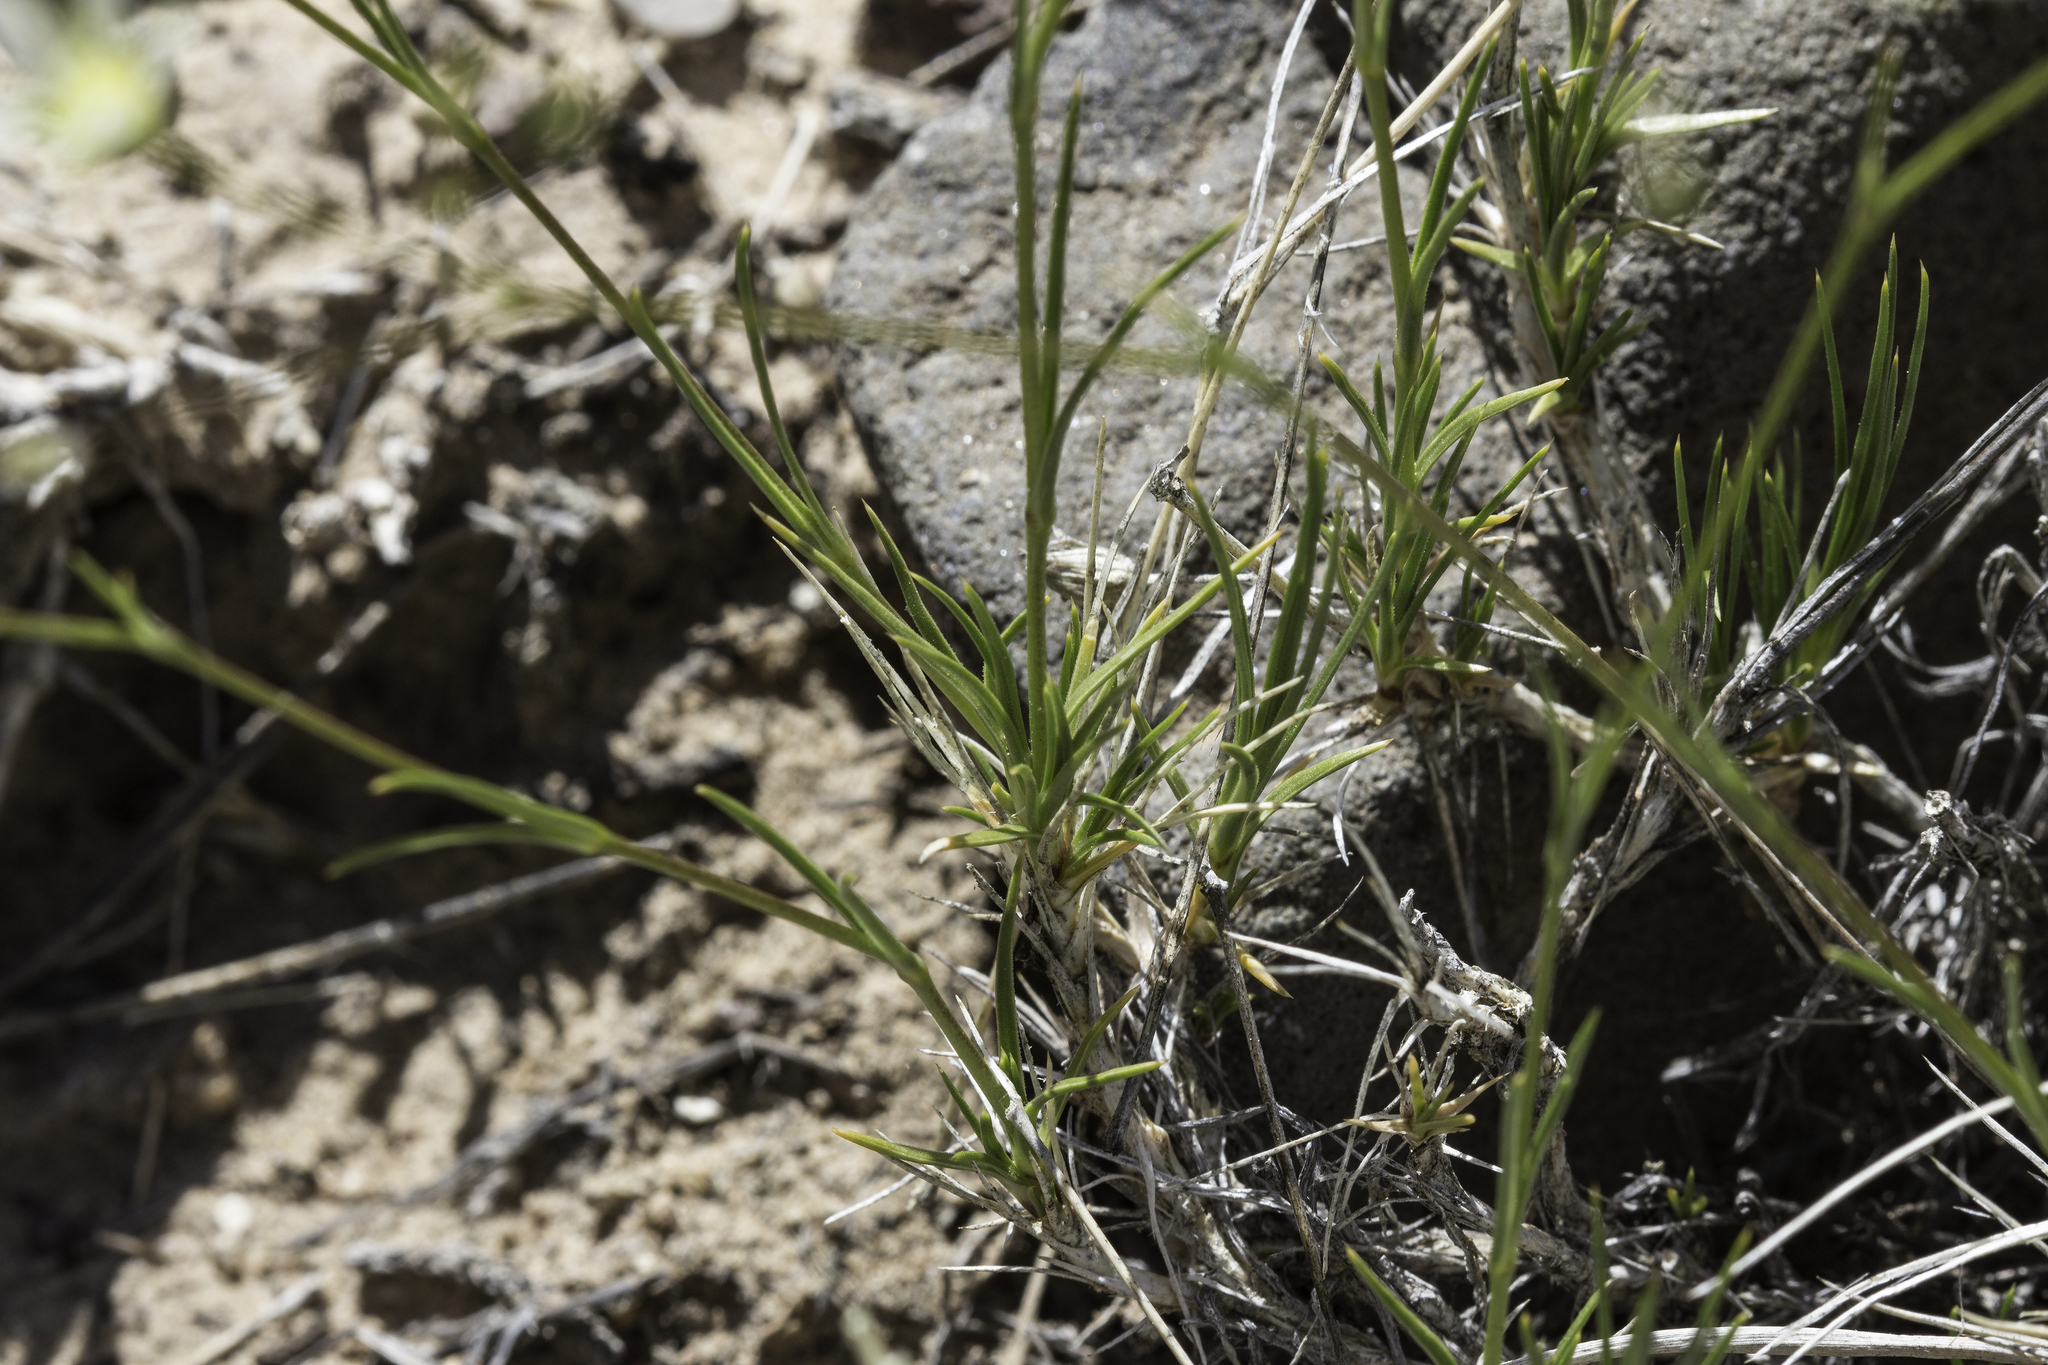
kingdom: Plantae
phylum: Tracheophyta
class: Magnoliopsida
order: Caryophyllales
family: Caryophyllaceae
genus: Eremogone
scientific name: Eremogone eastwoodiae
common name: Eastwood's sandwort
